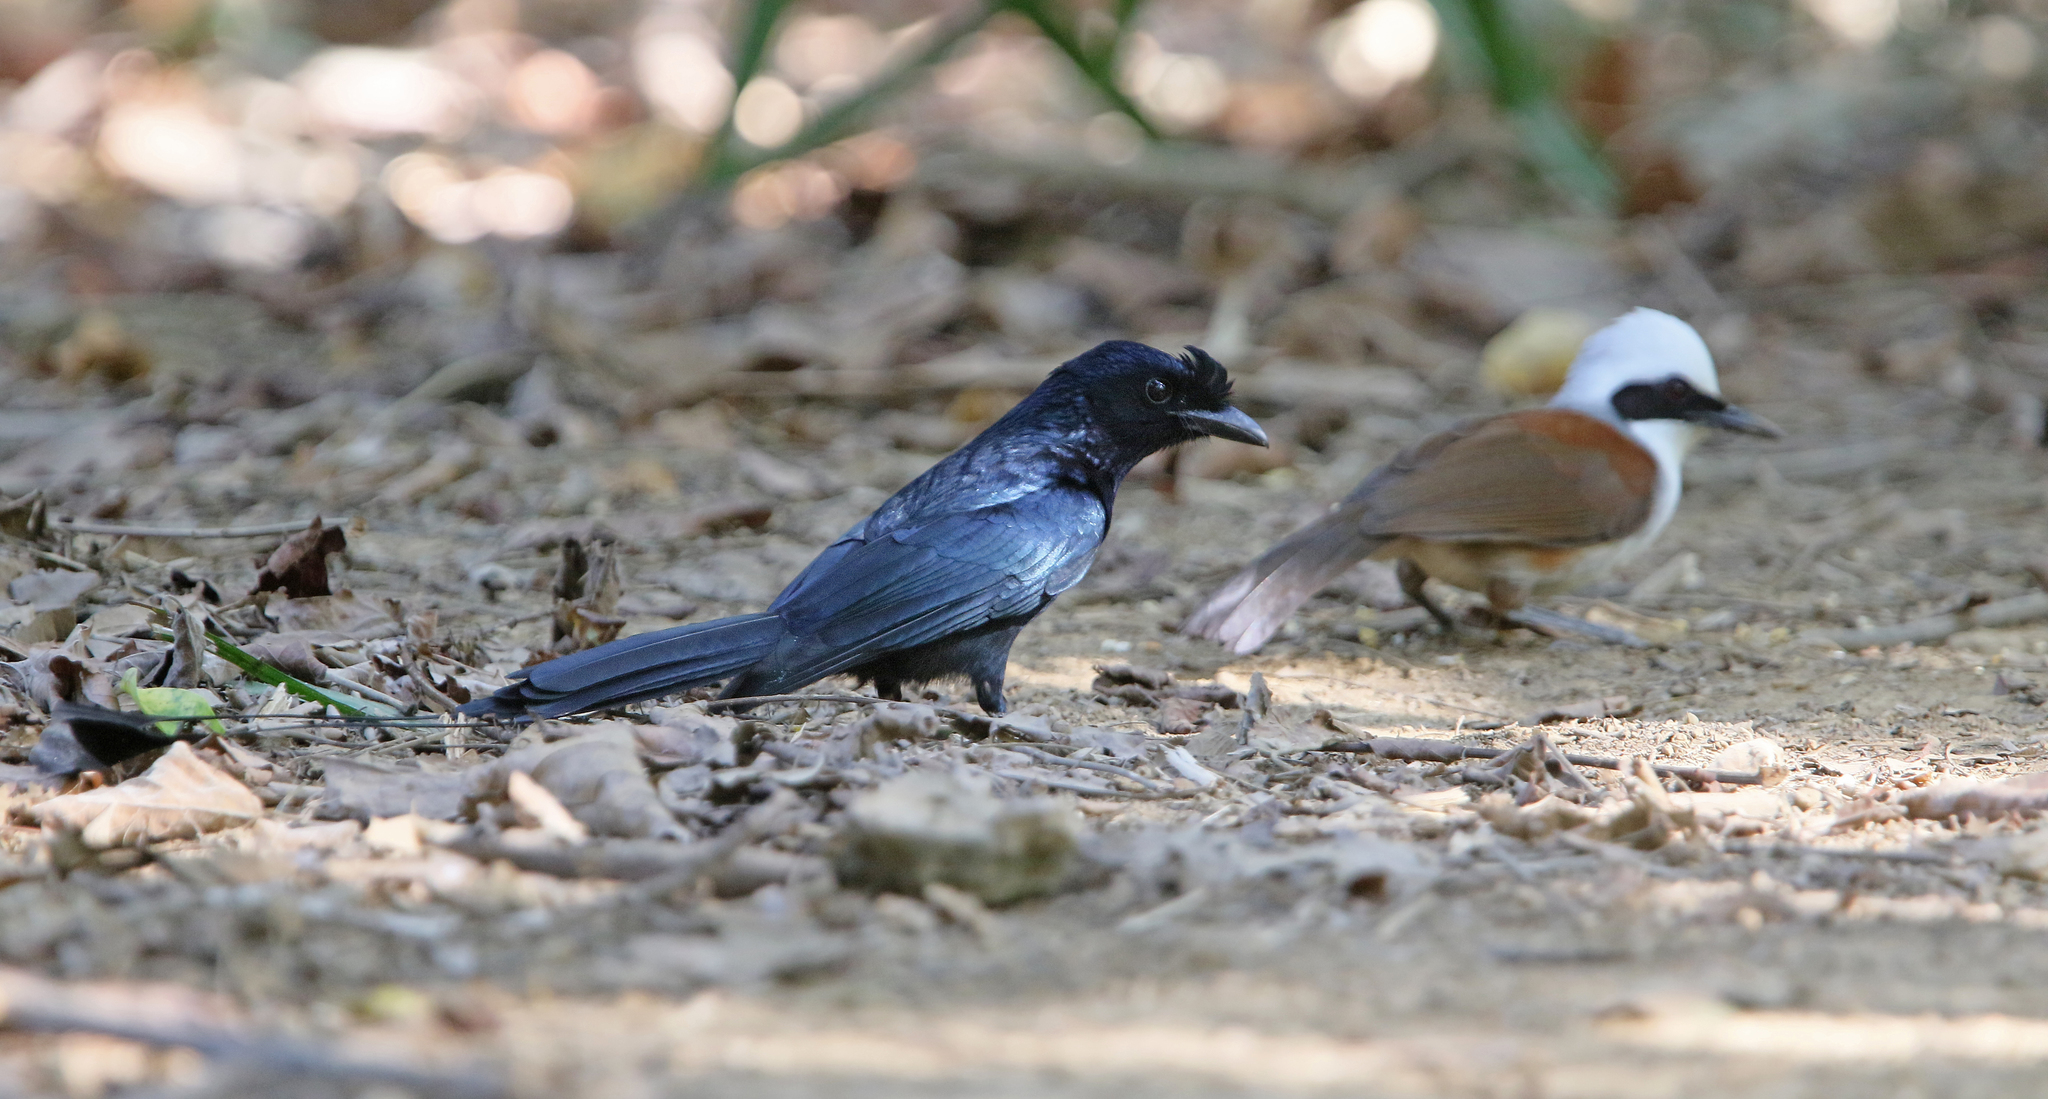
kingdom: Animalia
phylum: Chordata
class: Aves
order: Passeriformes
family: Dicruridae
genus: Dicrurus
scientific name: Dicrurus paradiseus
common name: Greater racket-tailed drongo
